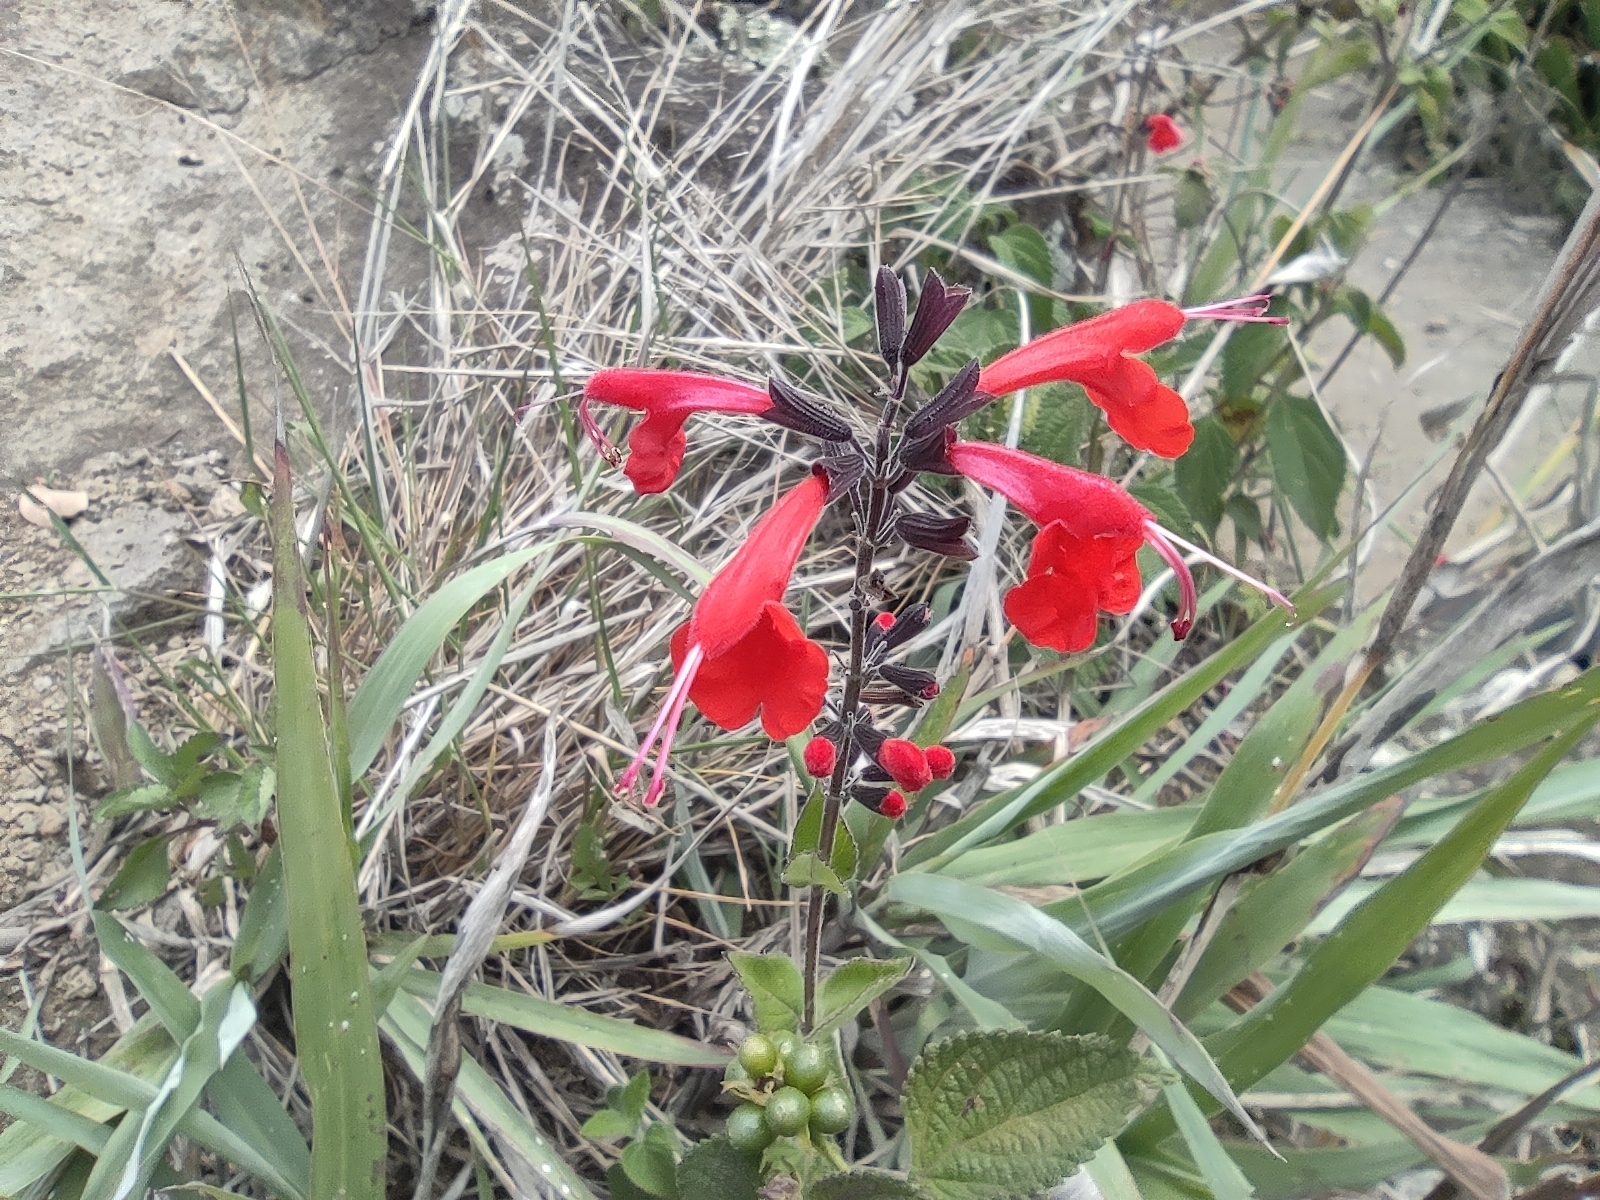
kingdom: Plantae
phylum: Tracheophyta
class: Magnoliopsida
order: Lamiales
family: Lamiaceae
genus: Salvia
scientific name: Salvia coccinea
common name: Blood sage
